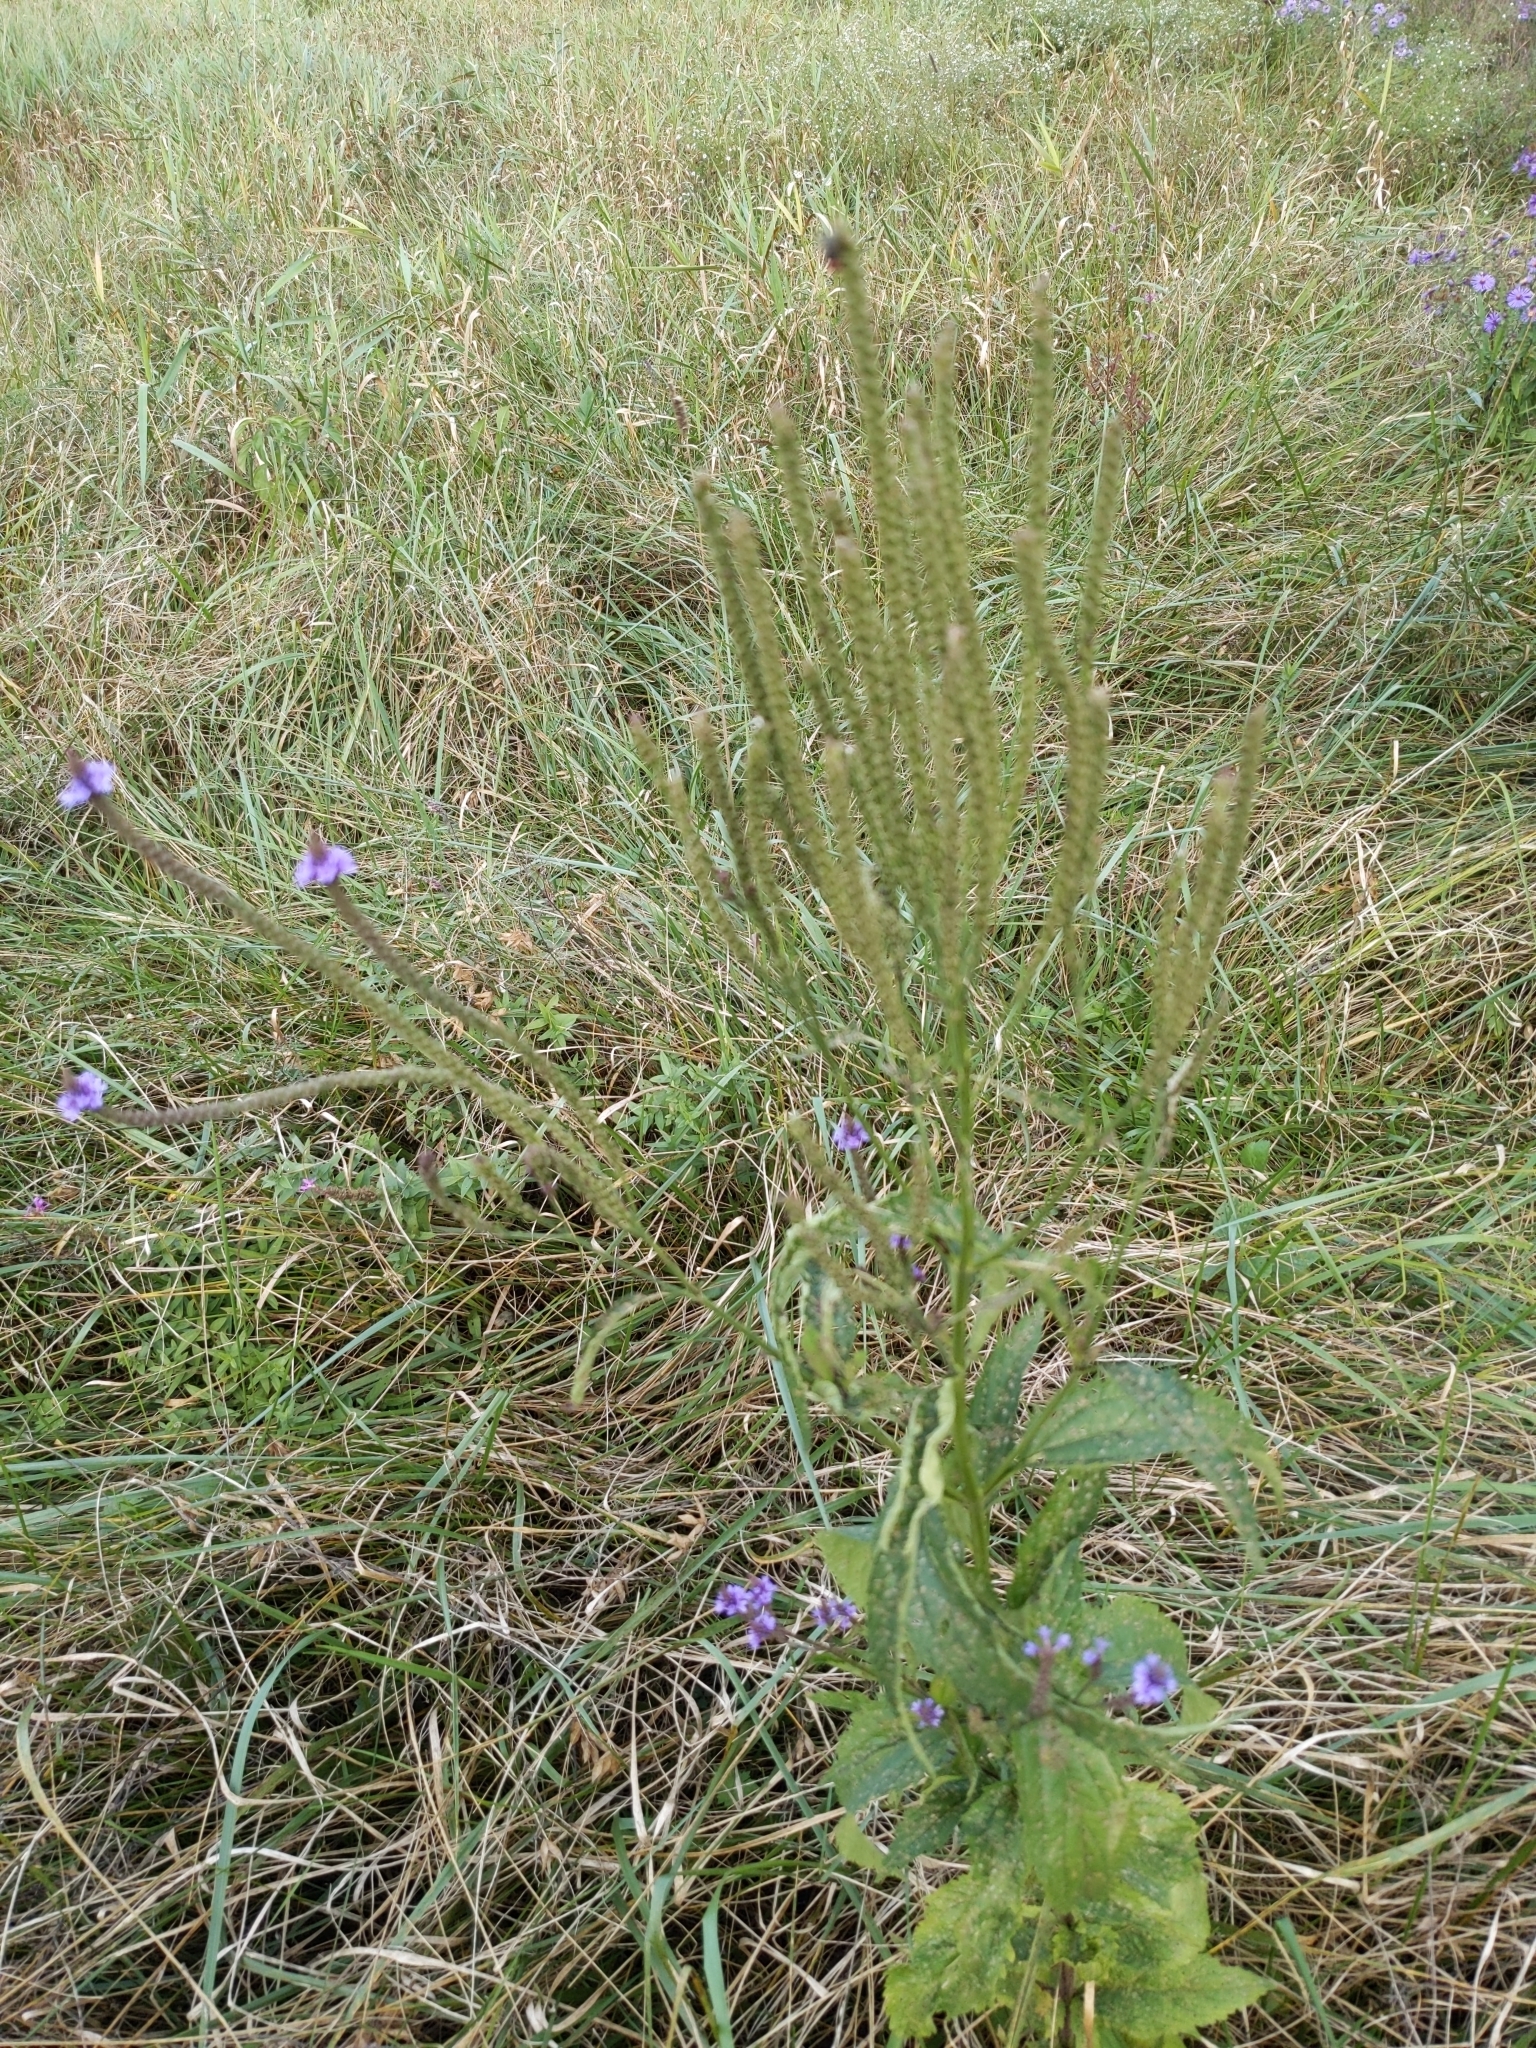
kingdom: Plantae
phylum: Tracheophyta
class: Magnoliopsida
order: Lamiales
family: Verbenaceae
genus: Verbena
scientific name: Verbena hastata
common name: American blue vervain
